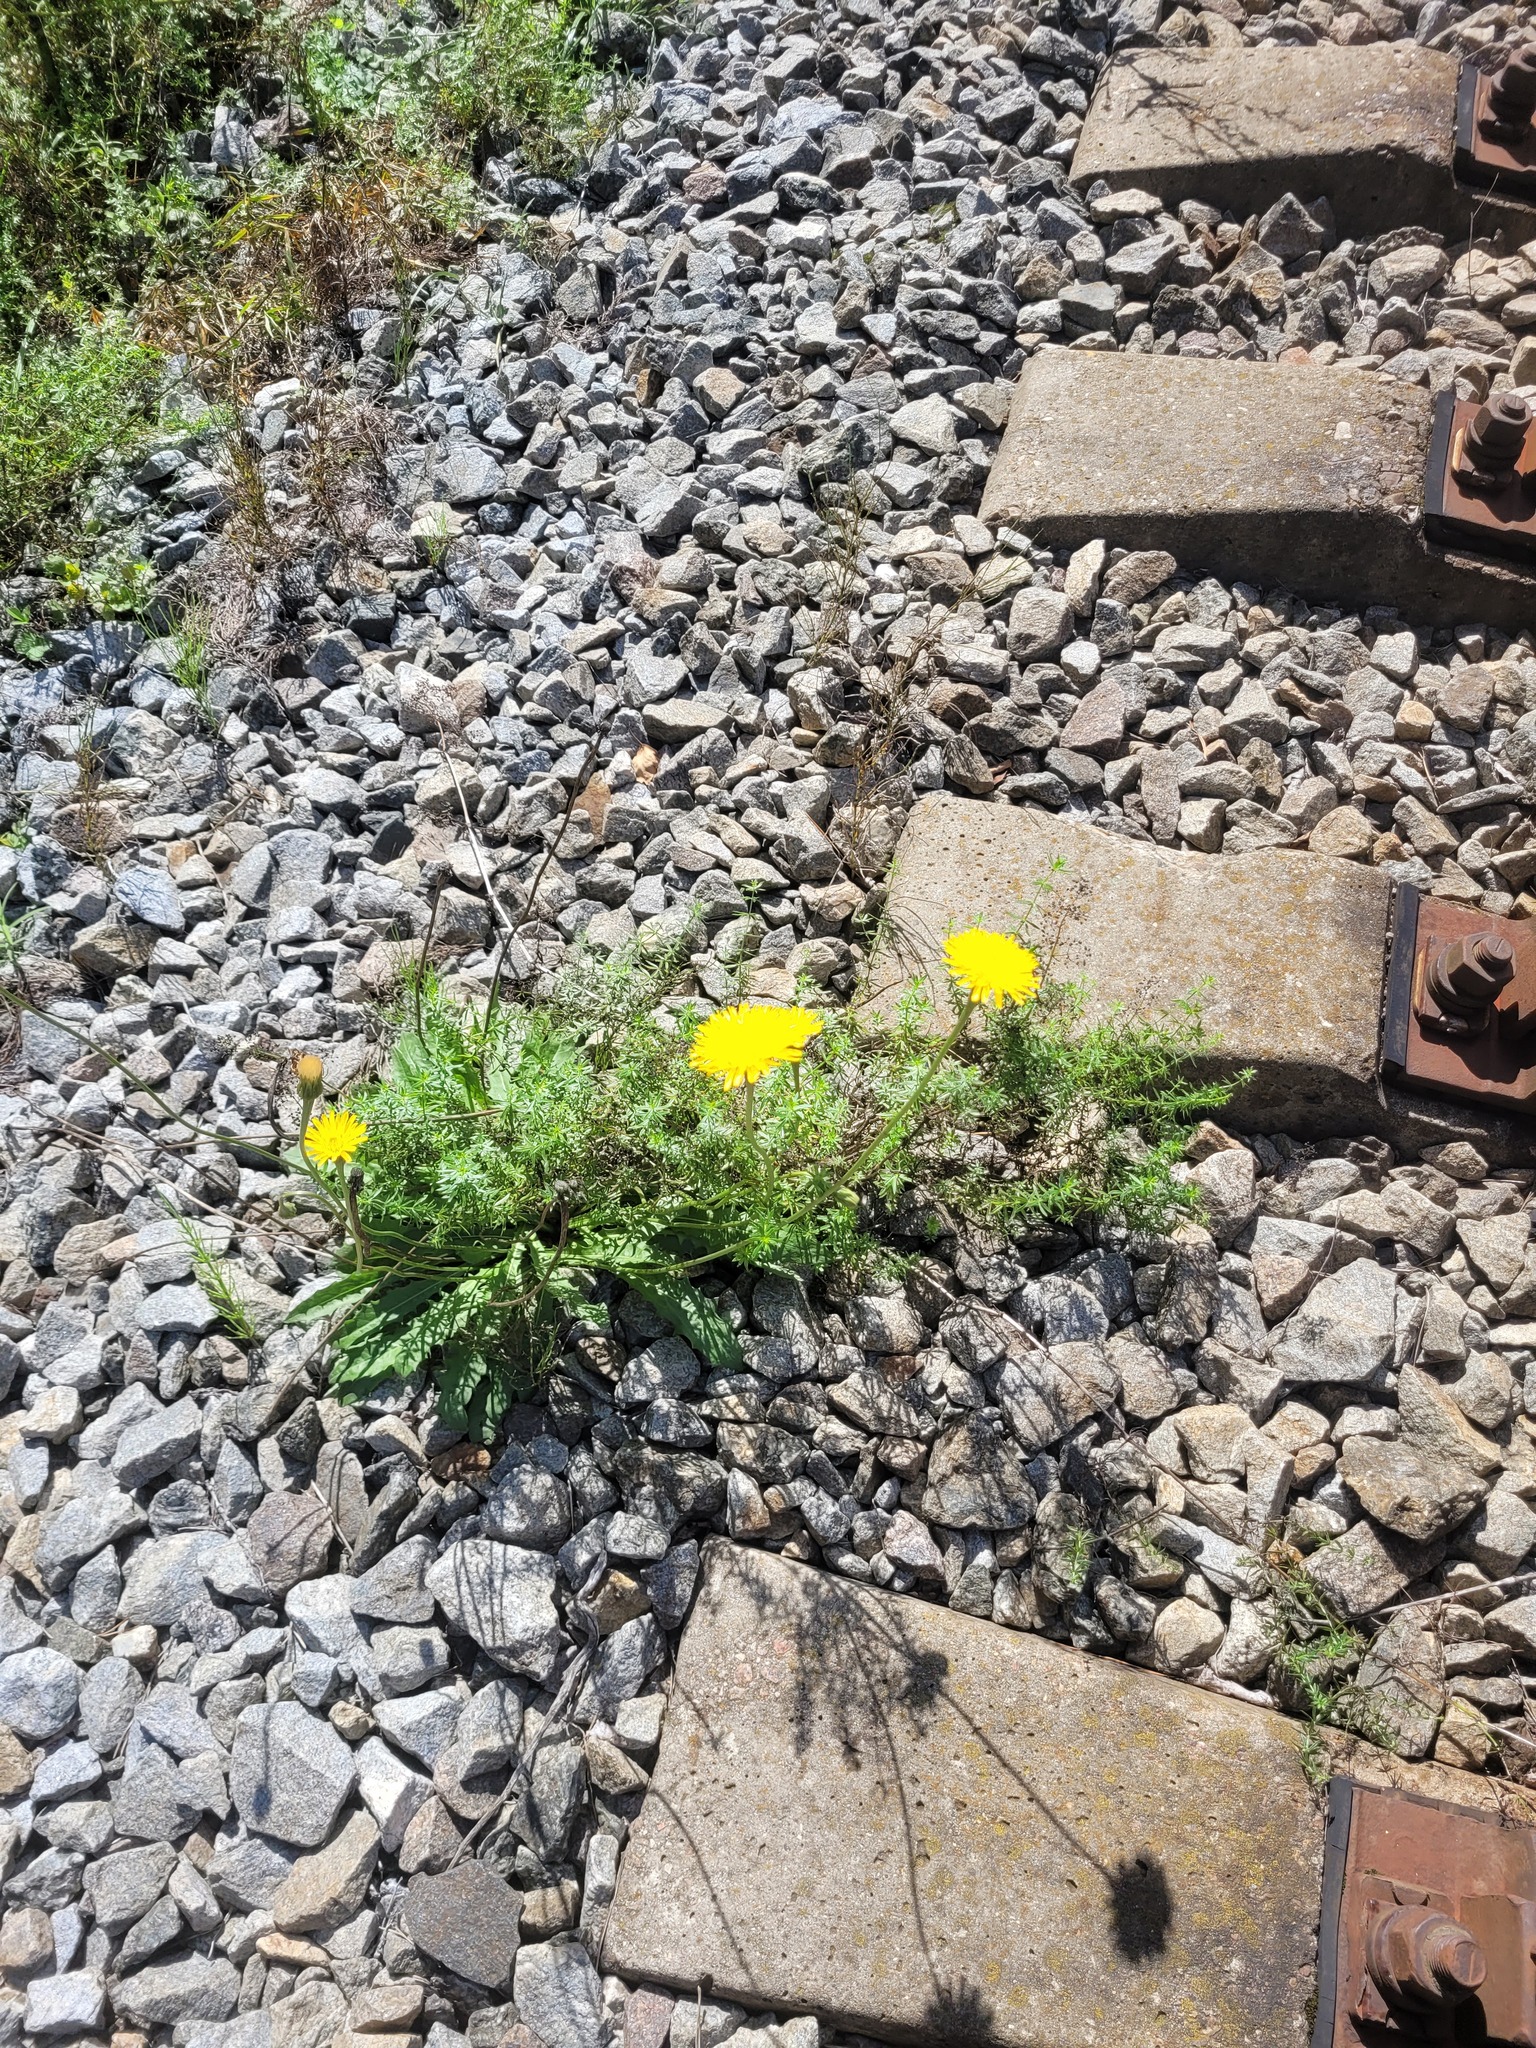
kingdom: Plantae
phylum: Tracheophyta
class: Magnoliopsida
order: Asterales
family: Asteraceae
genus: Leontodon
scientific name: Leontodon hispidus
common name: Rough hawkbit
